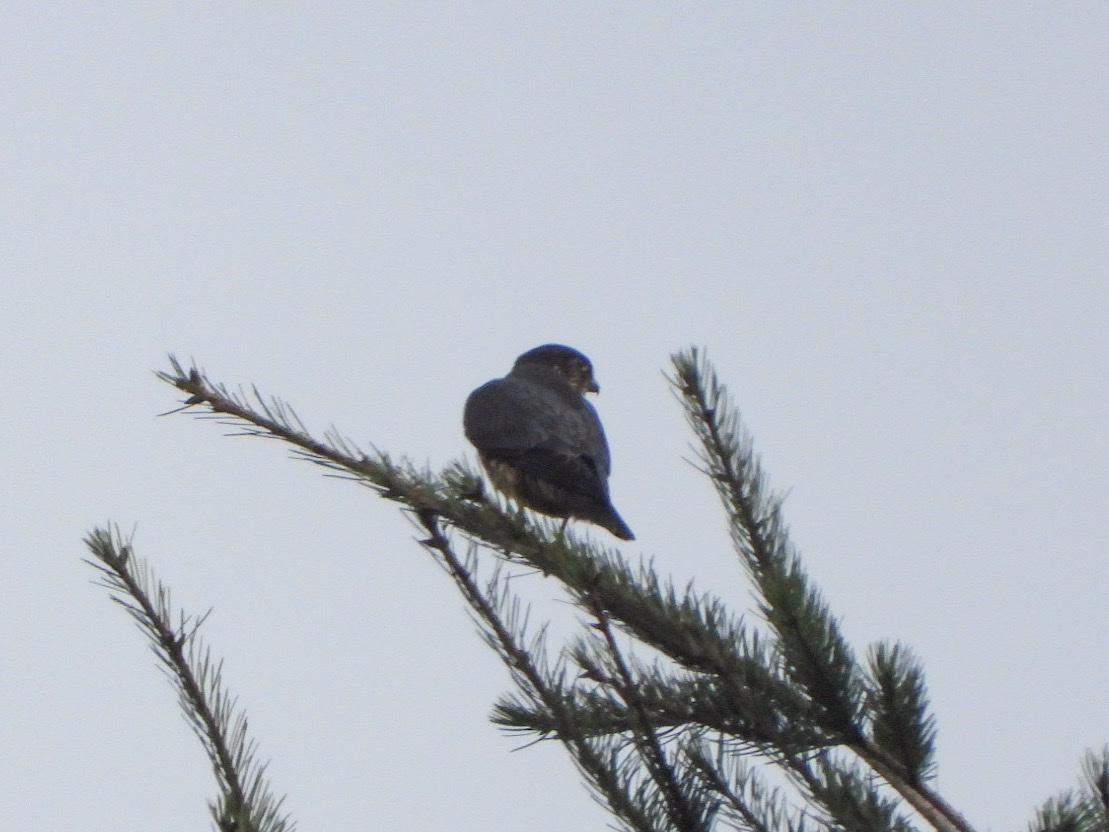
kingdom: Animalia
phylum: Chordata
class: Aves
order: Falconiformes
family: Falconidae
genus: Falco
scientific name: Falco columbarius
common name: Merlin
